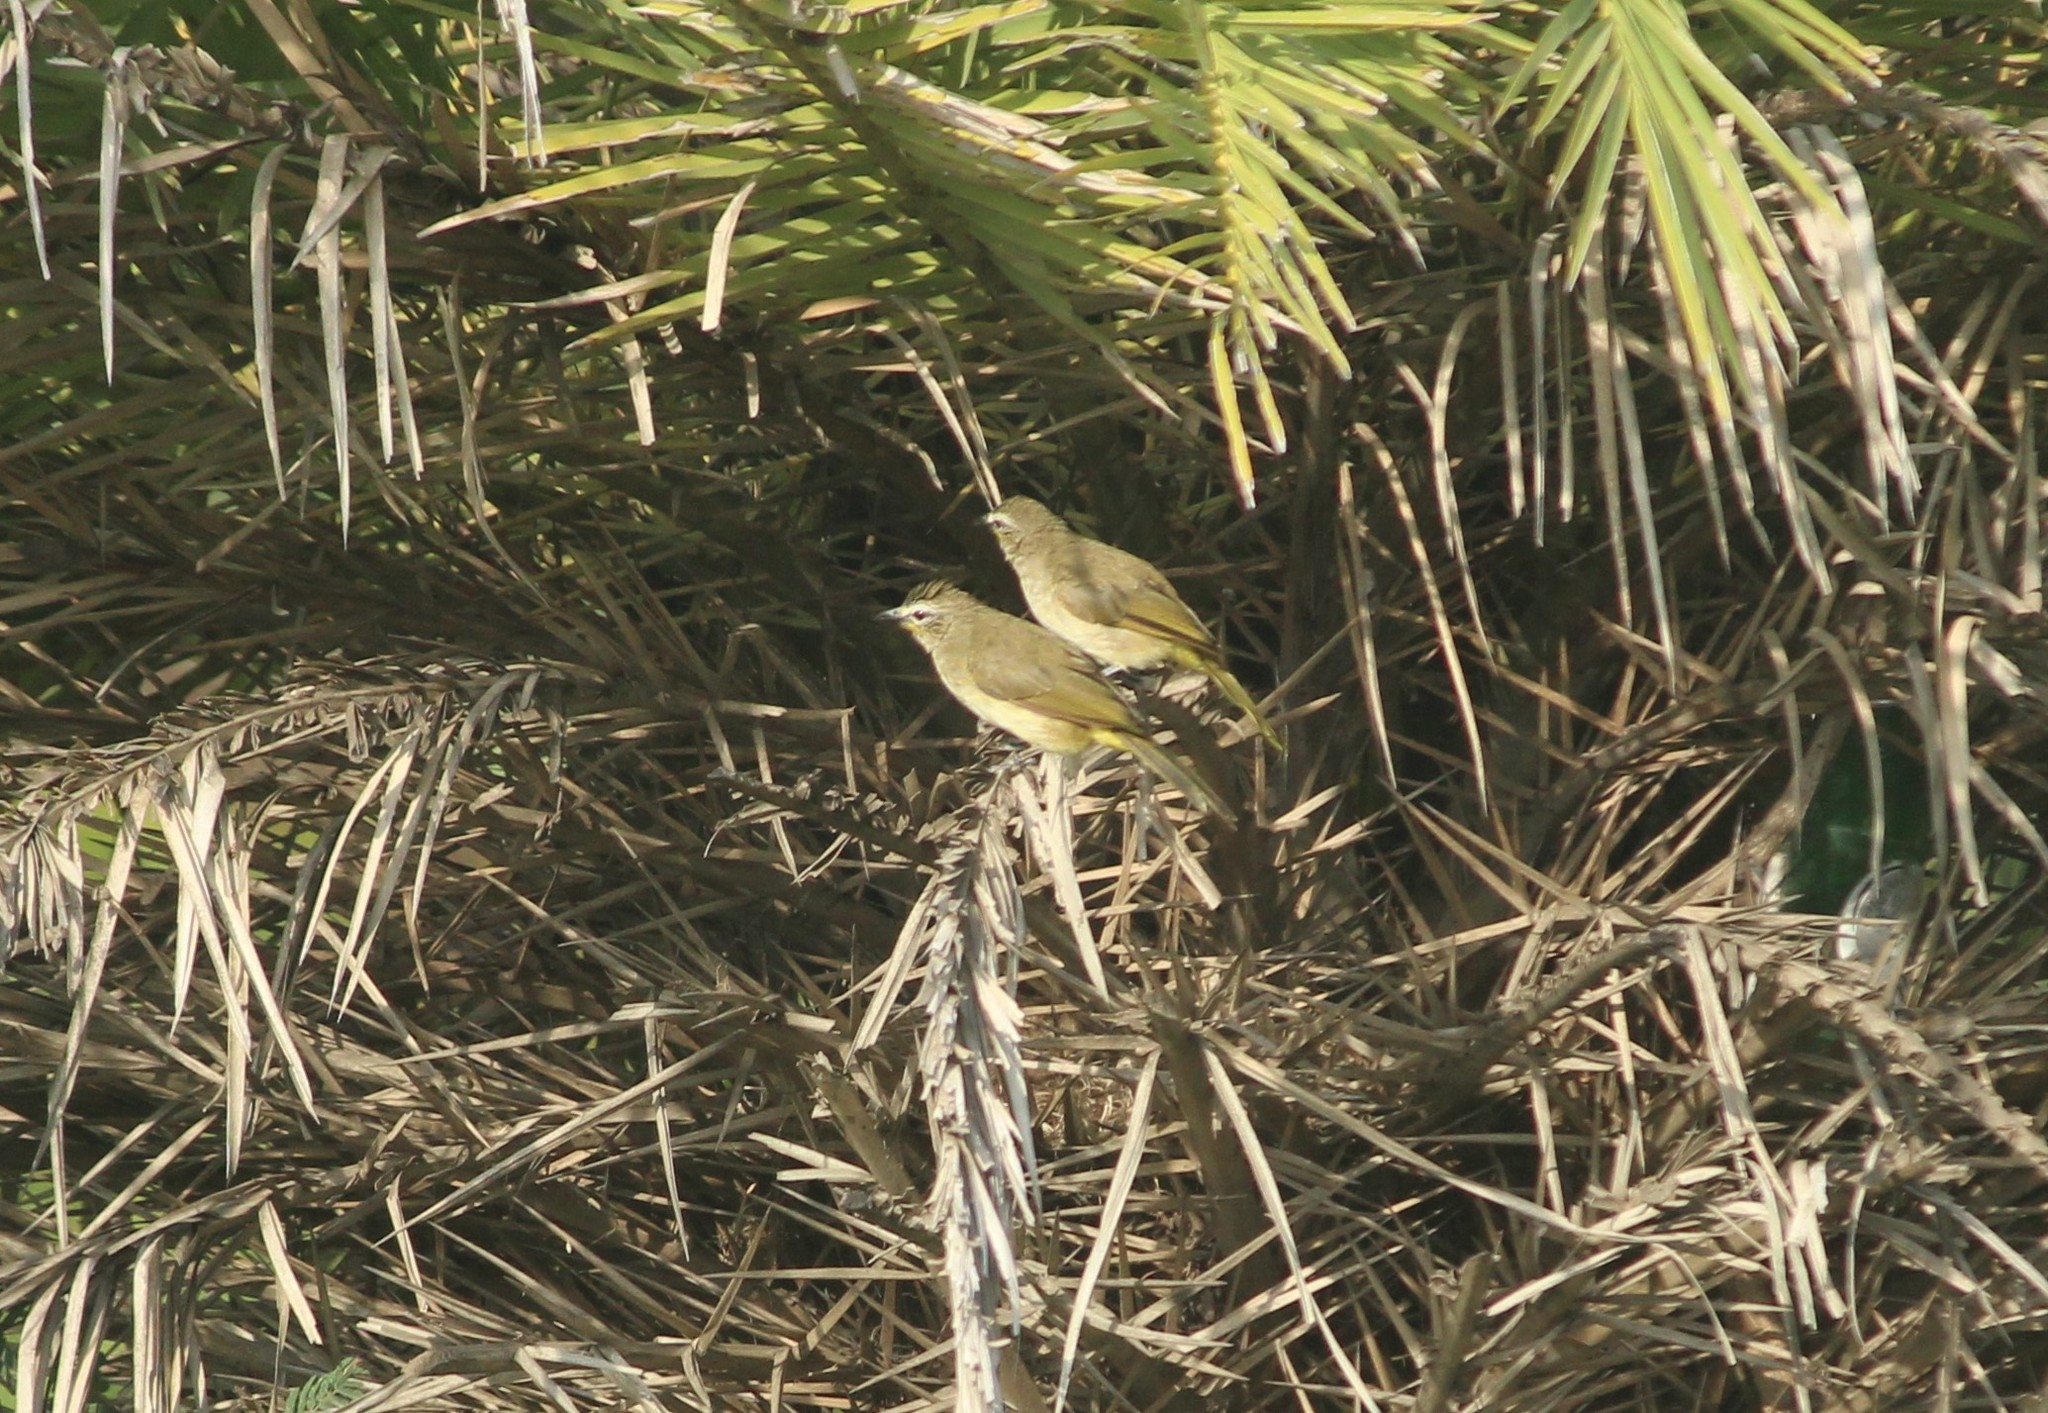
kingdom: Animalia
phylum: Chordata
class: Aves
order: Passeriformes
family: Pycnonotidae
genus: Pycnonotus
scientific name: Pycnonotus luteolus
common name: White-browed bulbul
